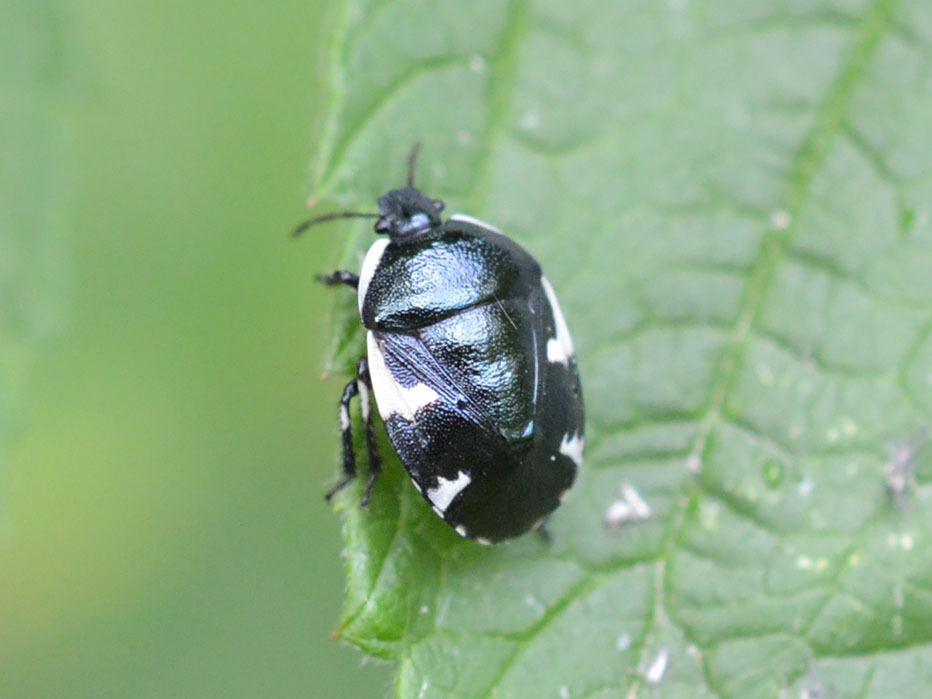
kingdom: Animalia
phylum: Arthropoda
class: Insecta
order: Hemiptera
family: Cydnidae
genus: Tritomegas
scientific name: Tritomegas sexmaculatus
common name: Rambur's pied shieldbug
